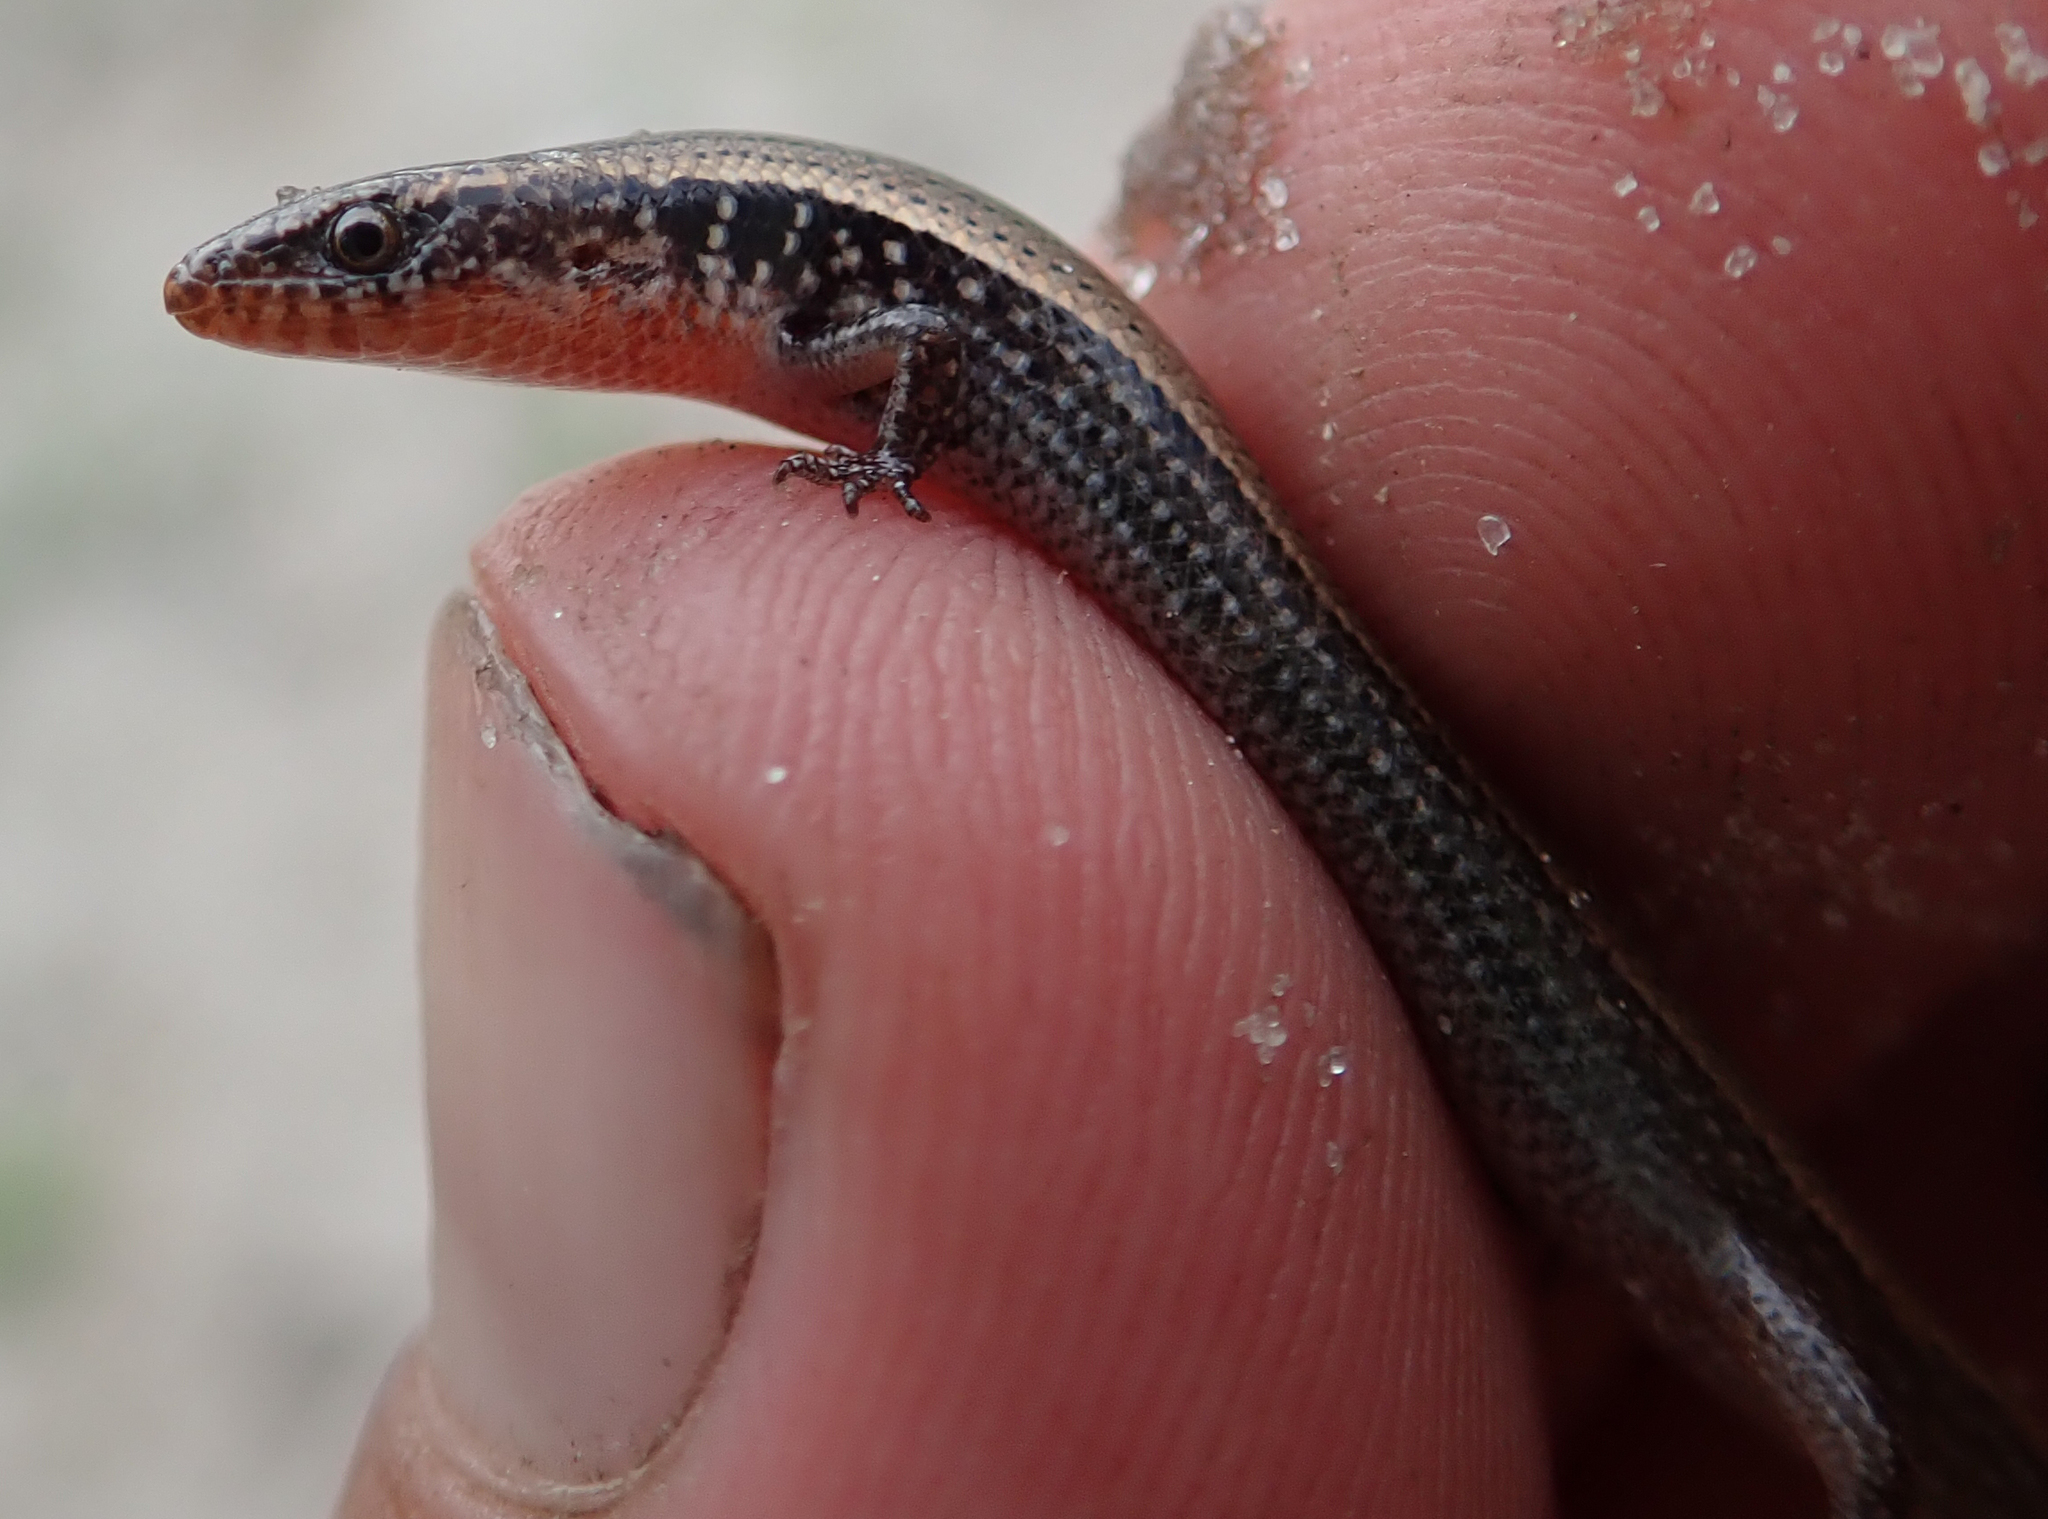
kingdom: Animalia
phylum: Chordata
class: Squamata
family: Scincidae
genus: Panaspis
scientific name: Panaspis maculicollis
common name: Spotted-neck snake-eyed skink
